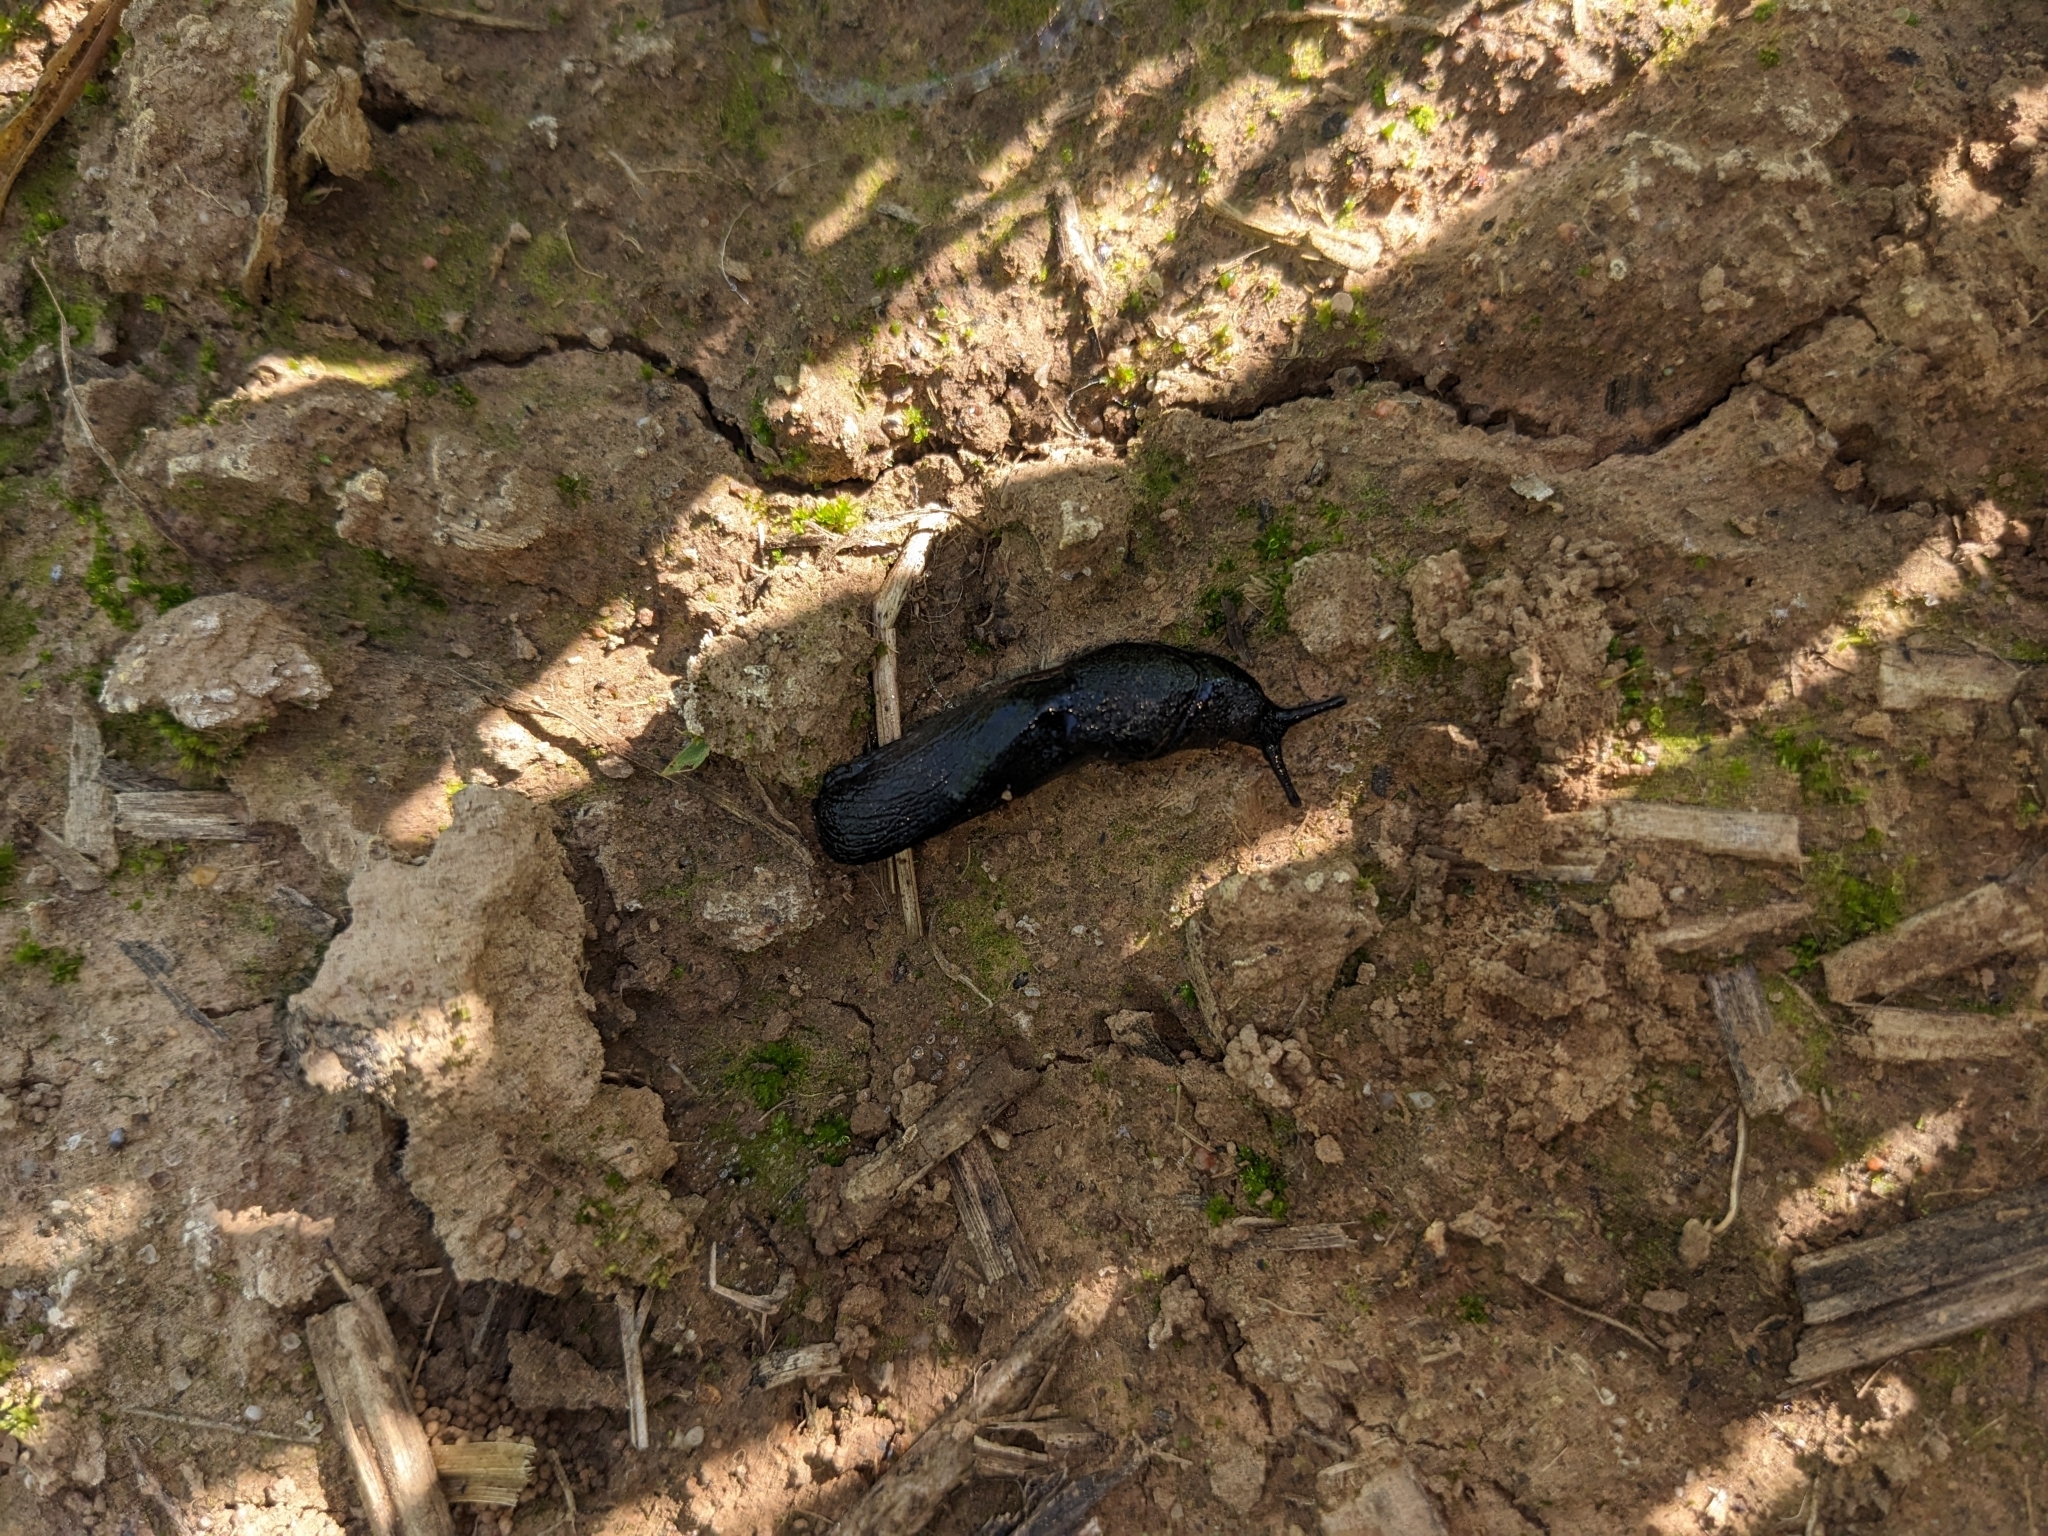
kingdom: Animalia
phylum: Mollusca
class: Gastropoda
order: Stylommatophora
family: Milacidae
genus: Milax
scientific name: Milax gagates
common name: Greenhouse slug
